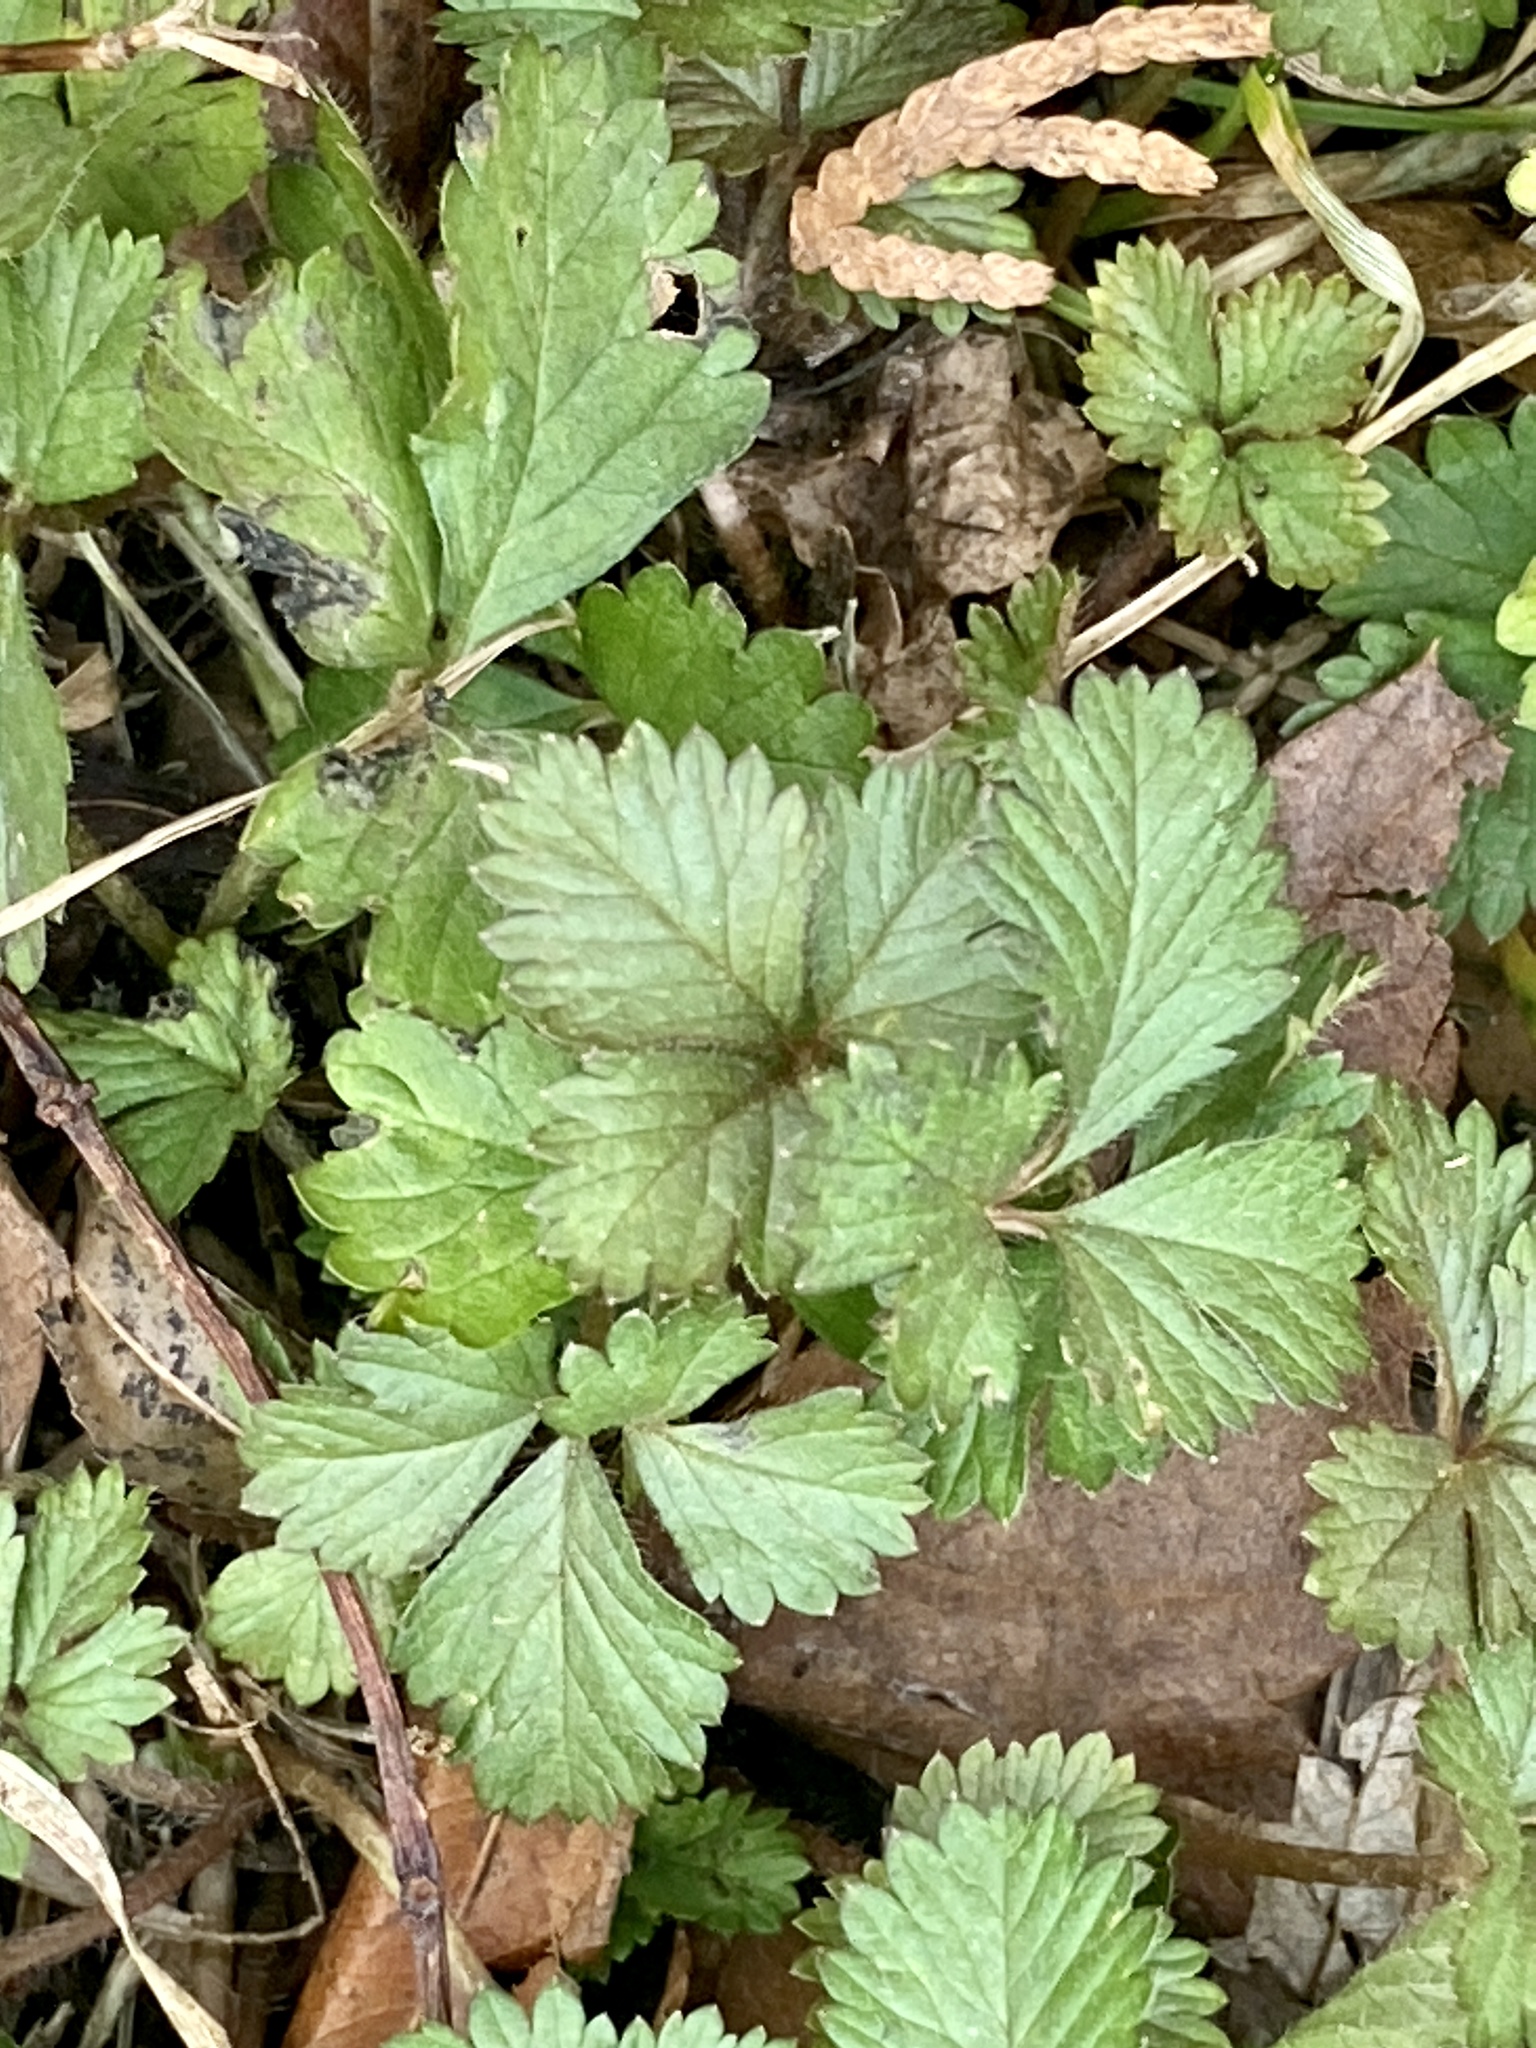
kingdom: Plantae
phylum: Tracheophyta
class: Magnoliopsida
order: Rosales
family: Rosaceae
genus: Potentilla
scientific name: Potentilla indica
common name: Yellow-flowered strawberry
